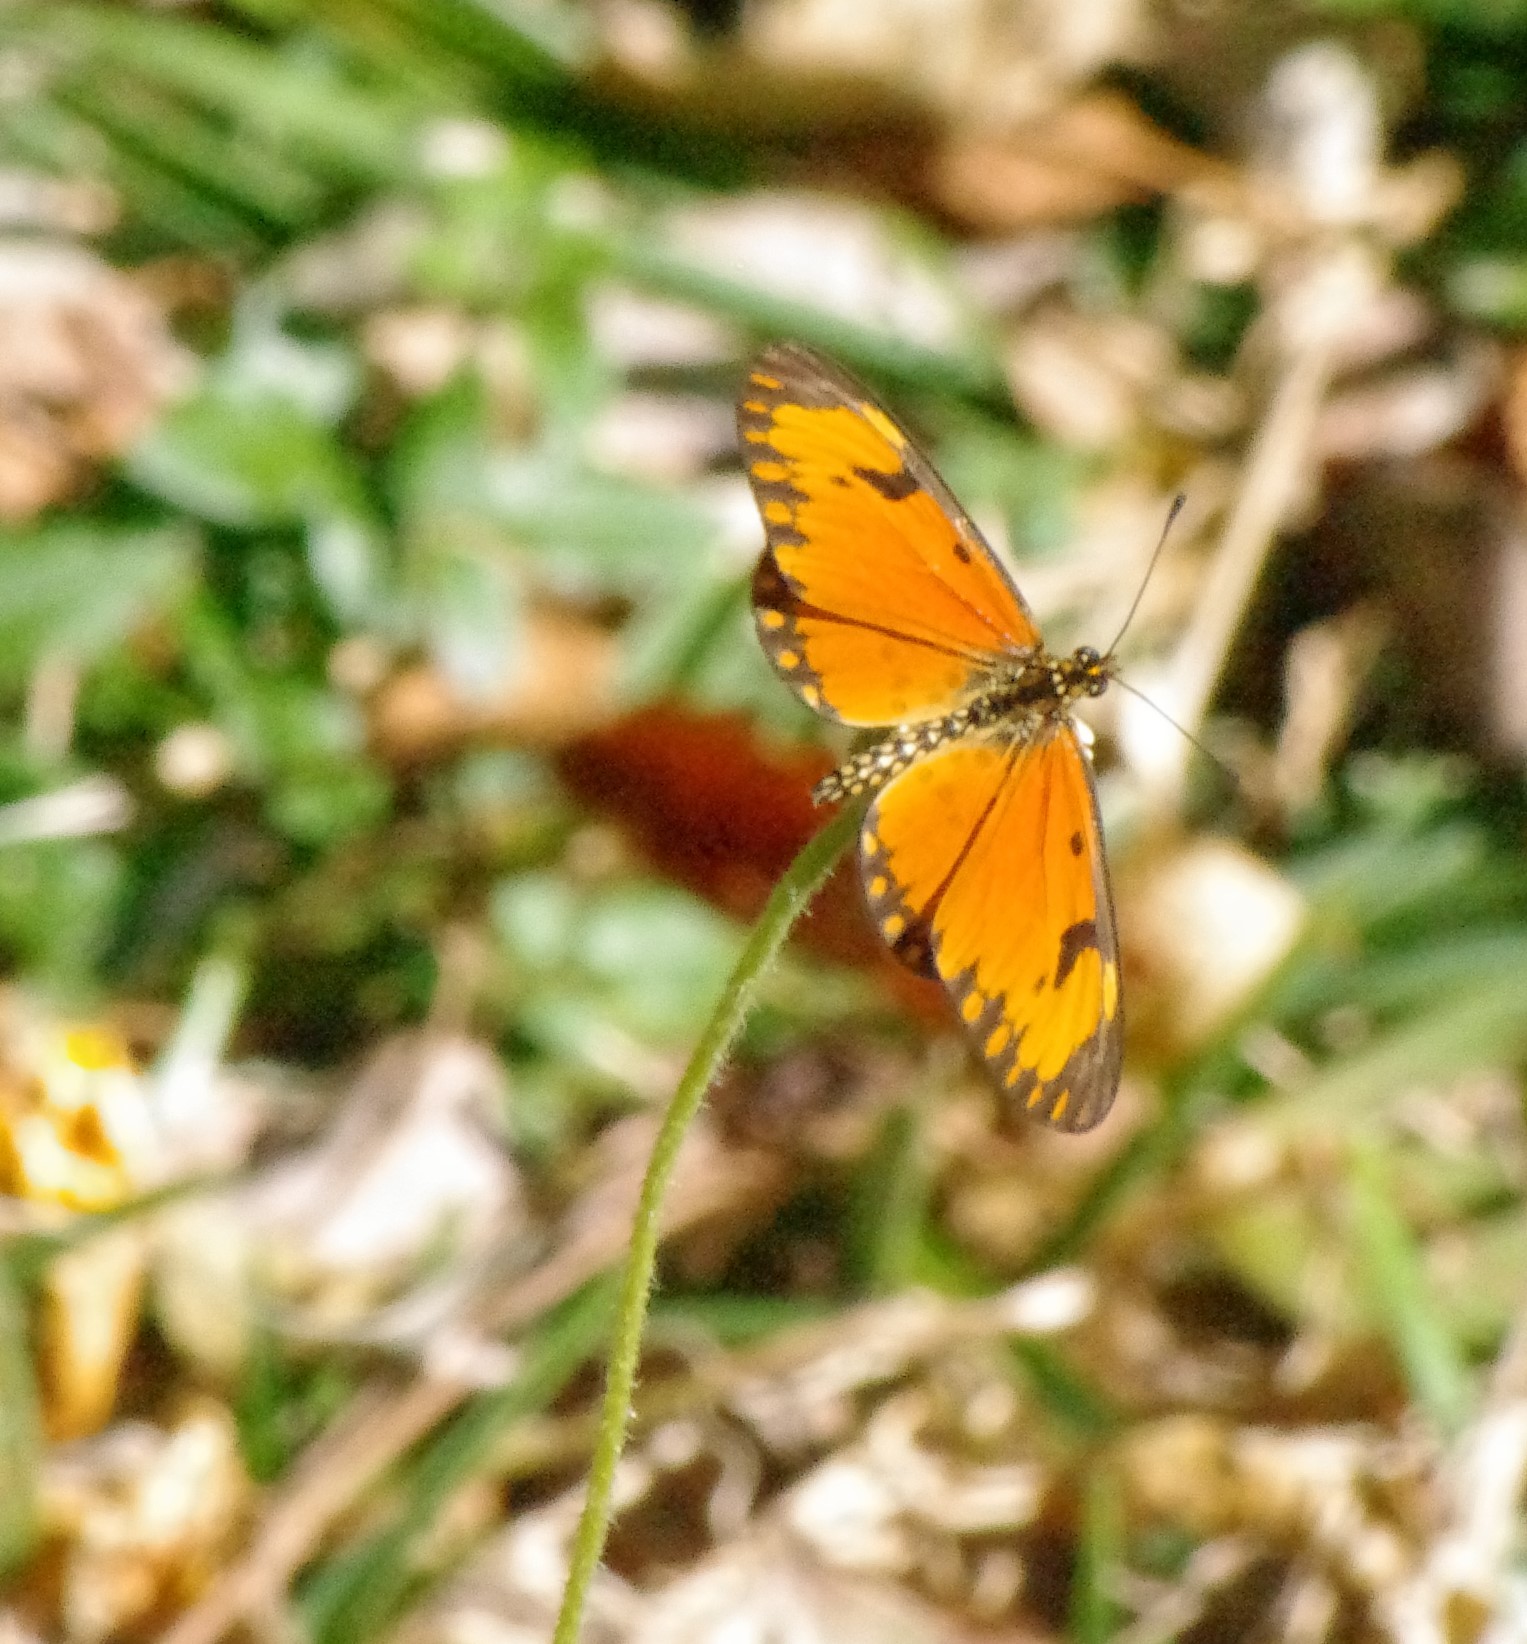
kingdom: Animalia
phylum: Arthropoda
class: Insecta
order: Lepidoptera
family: Nymphalidae
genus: Acraea
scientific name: Acraea Telchinia serena
